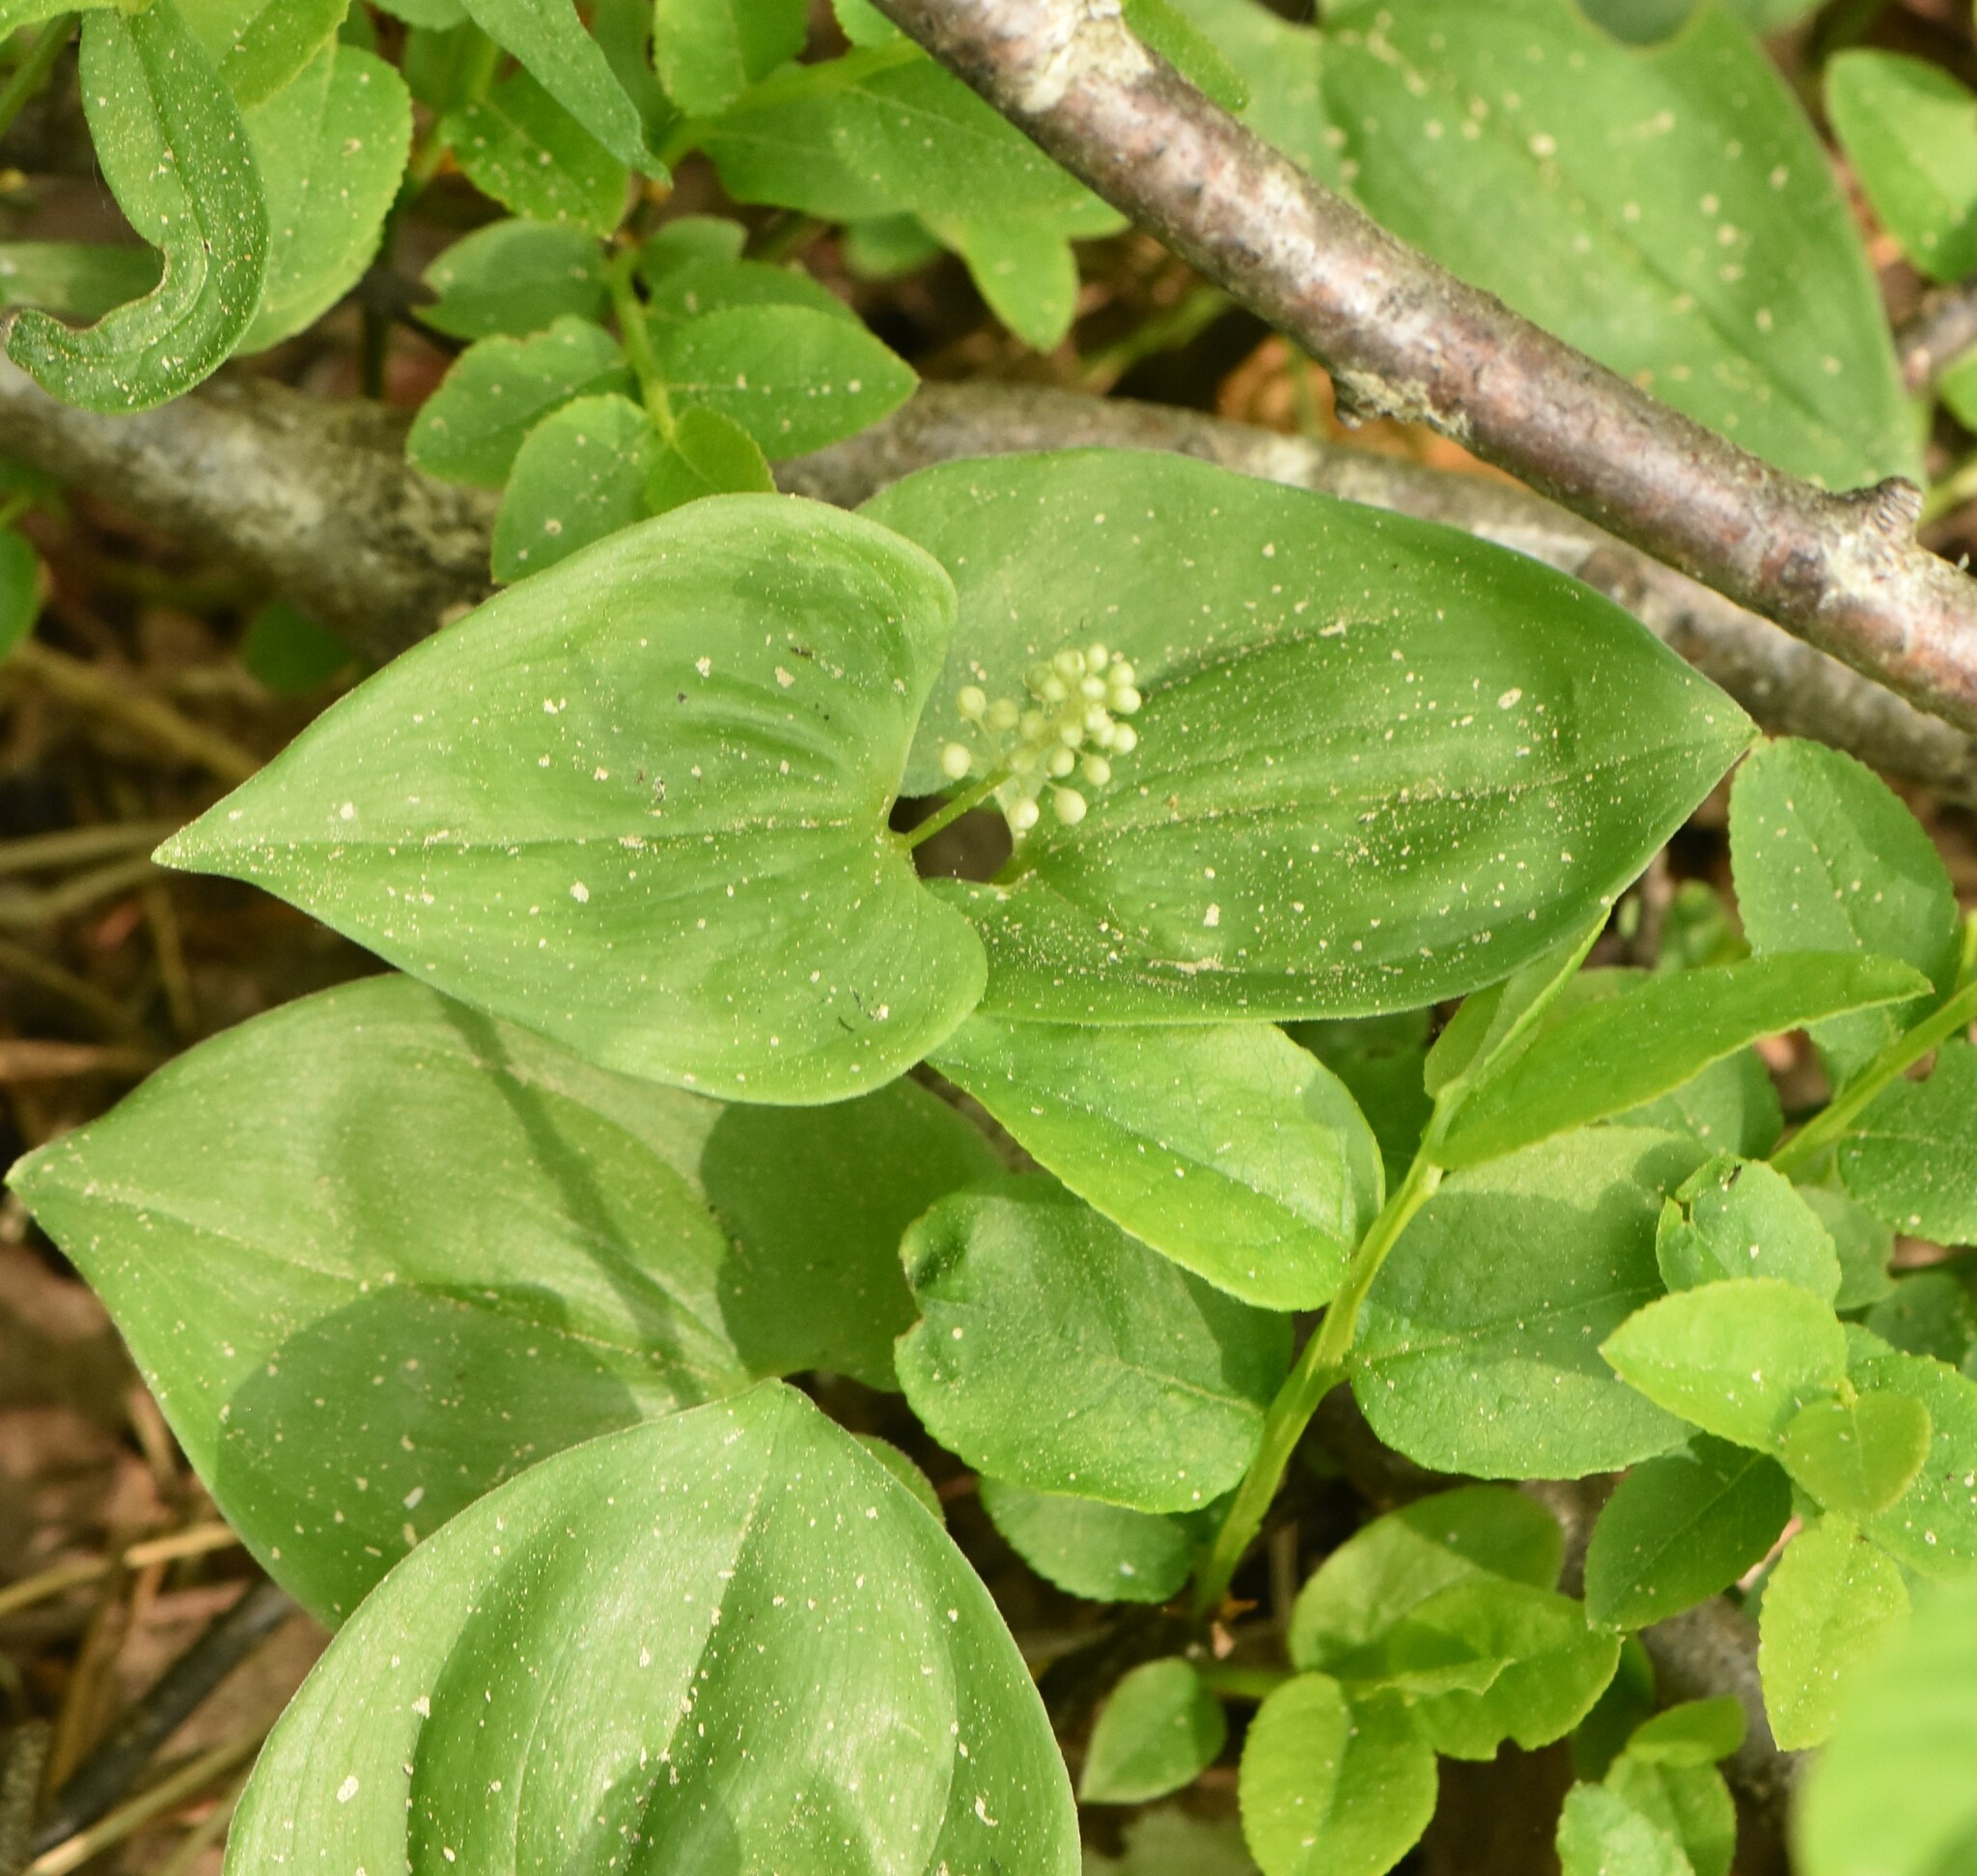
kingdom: Plantae
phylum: Tracheophyta
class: Liliopsida
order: Asparagales
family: Asparagaceae
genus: Maianthemum
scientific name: Maianthemum bifolium
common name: May lily
